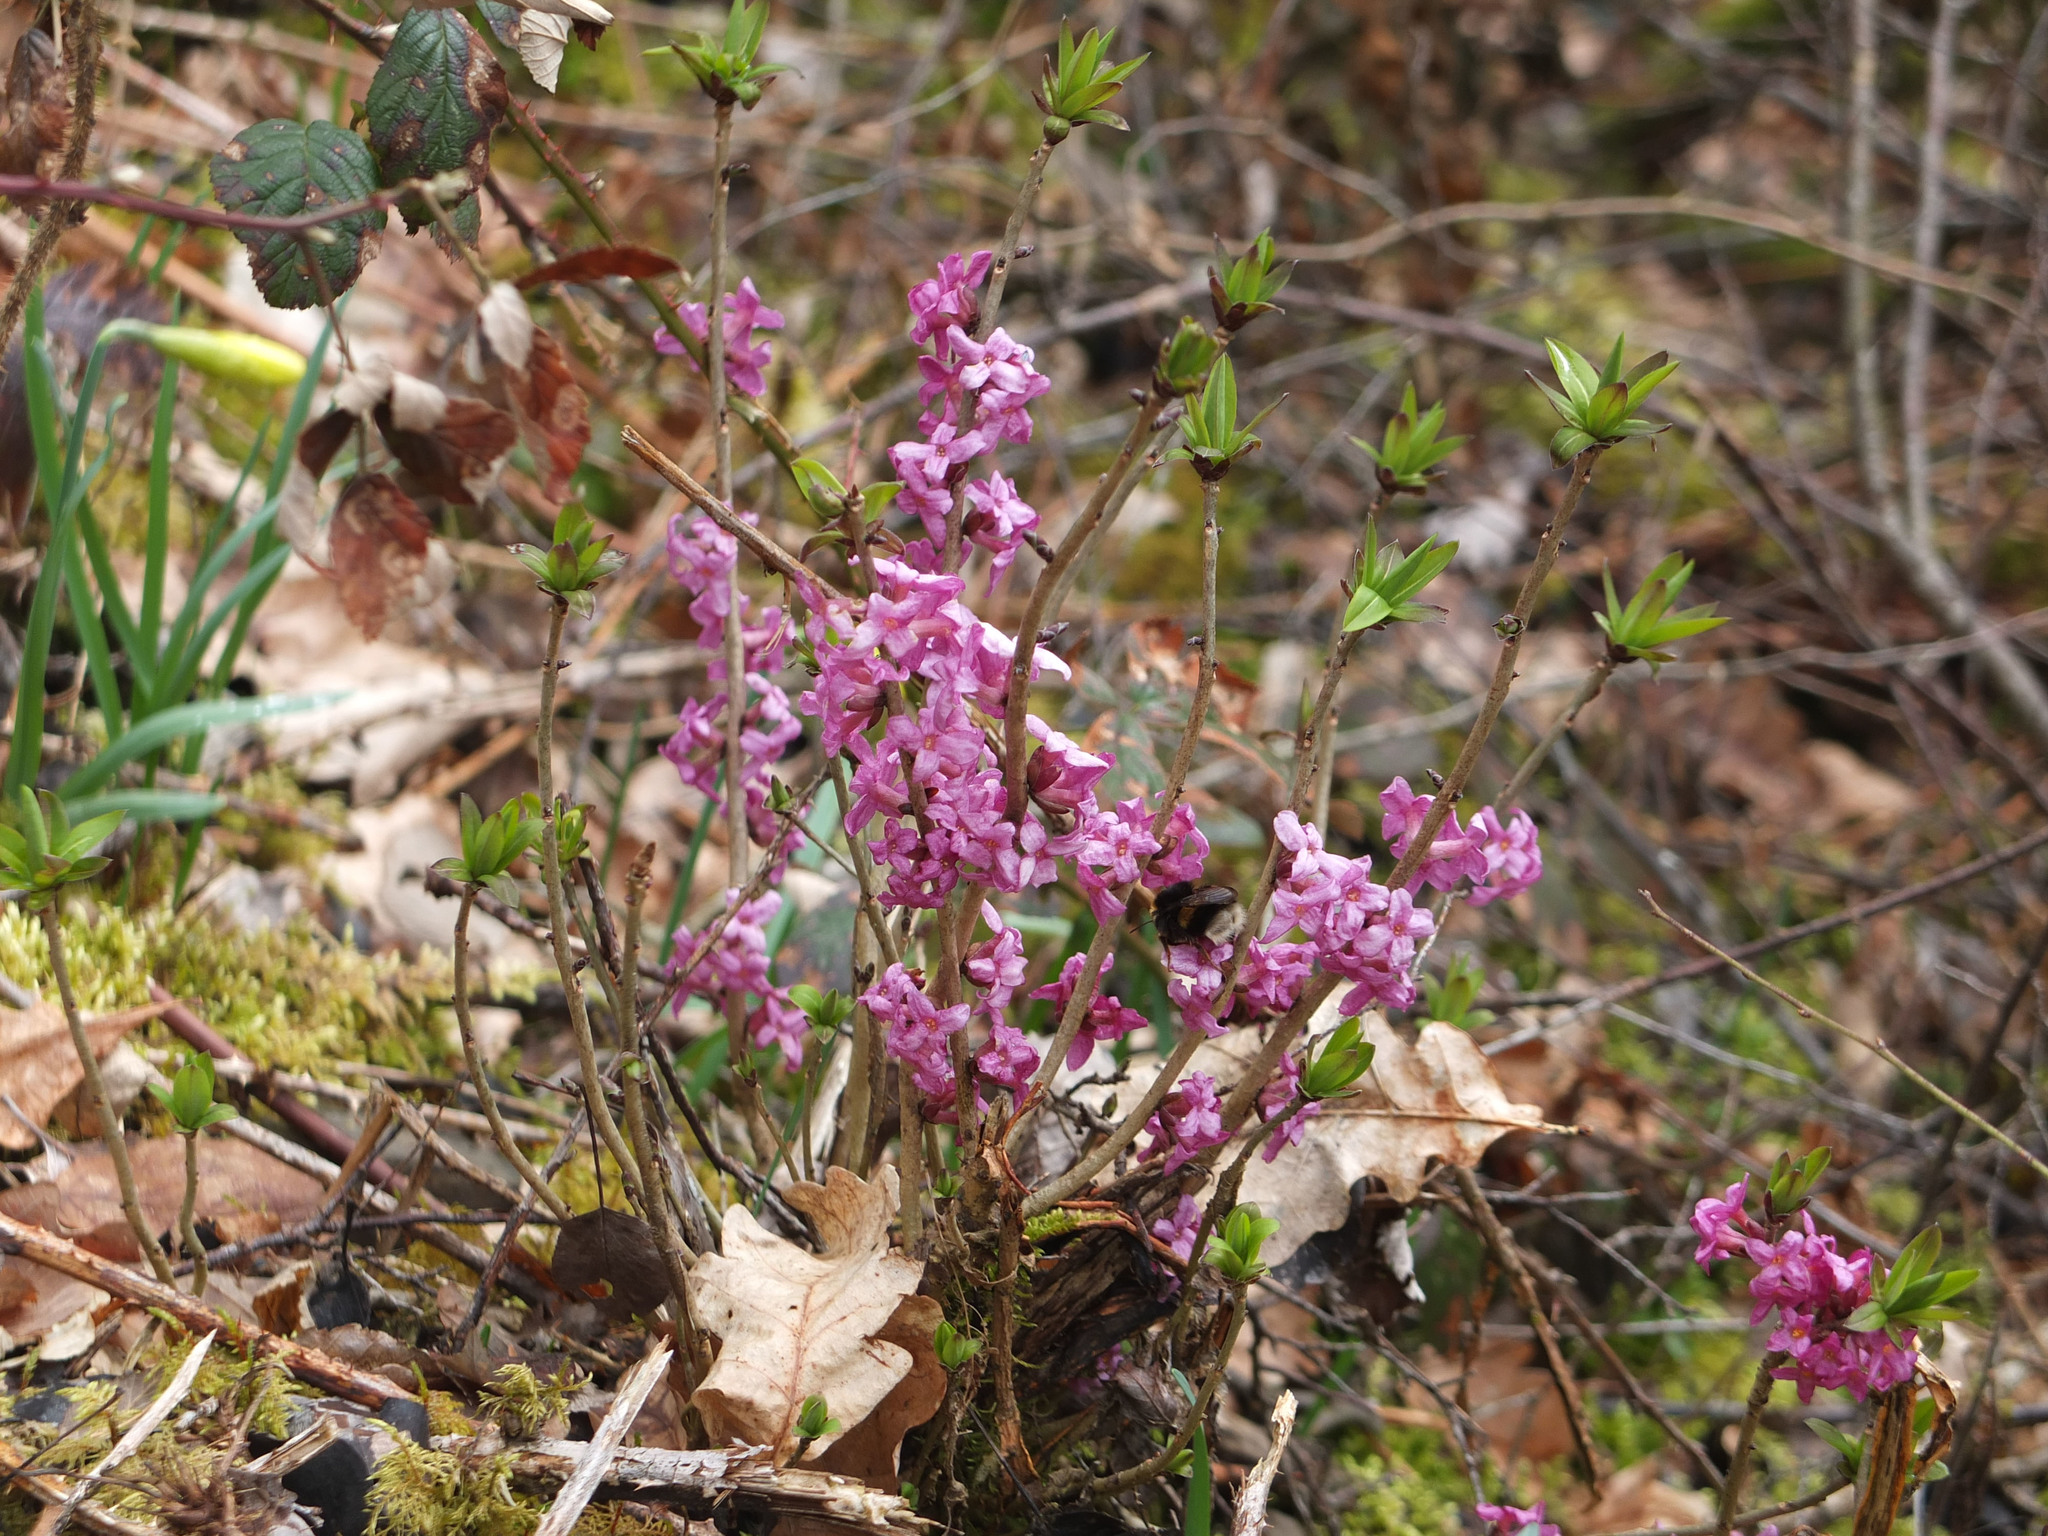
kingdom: Plantae
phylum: Tracheophyta
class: Magnoliopsida
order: Malvales
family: Thymelaeaceae
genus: Daphne
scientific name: Daphne mezereum
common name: Mezereon
